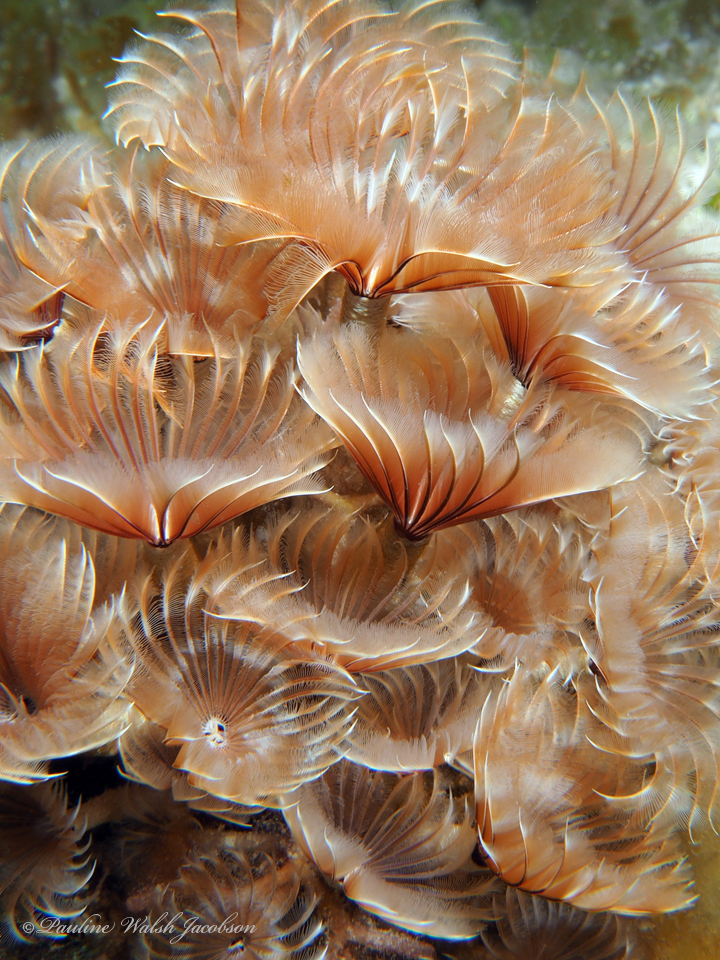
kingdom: Animalia
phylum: Annelida
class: Polychaeta
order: Sabellida
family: Sabellidae
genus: Bispira
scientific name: Bispira brunnea
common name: Social feather duster
